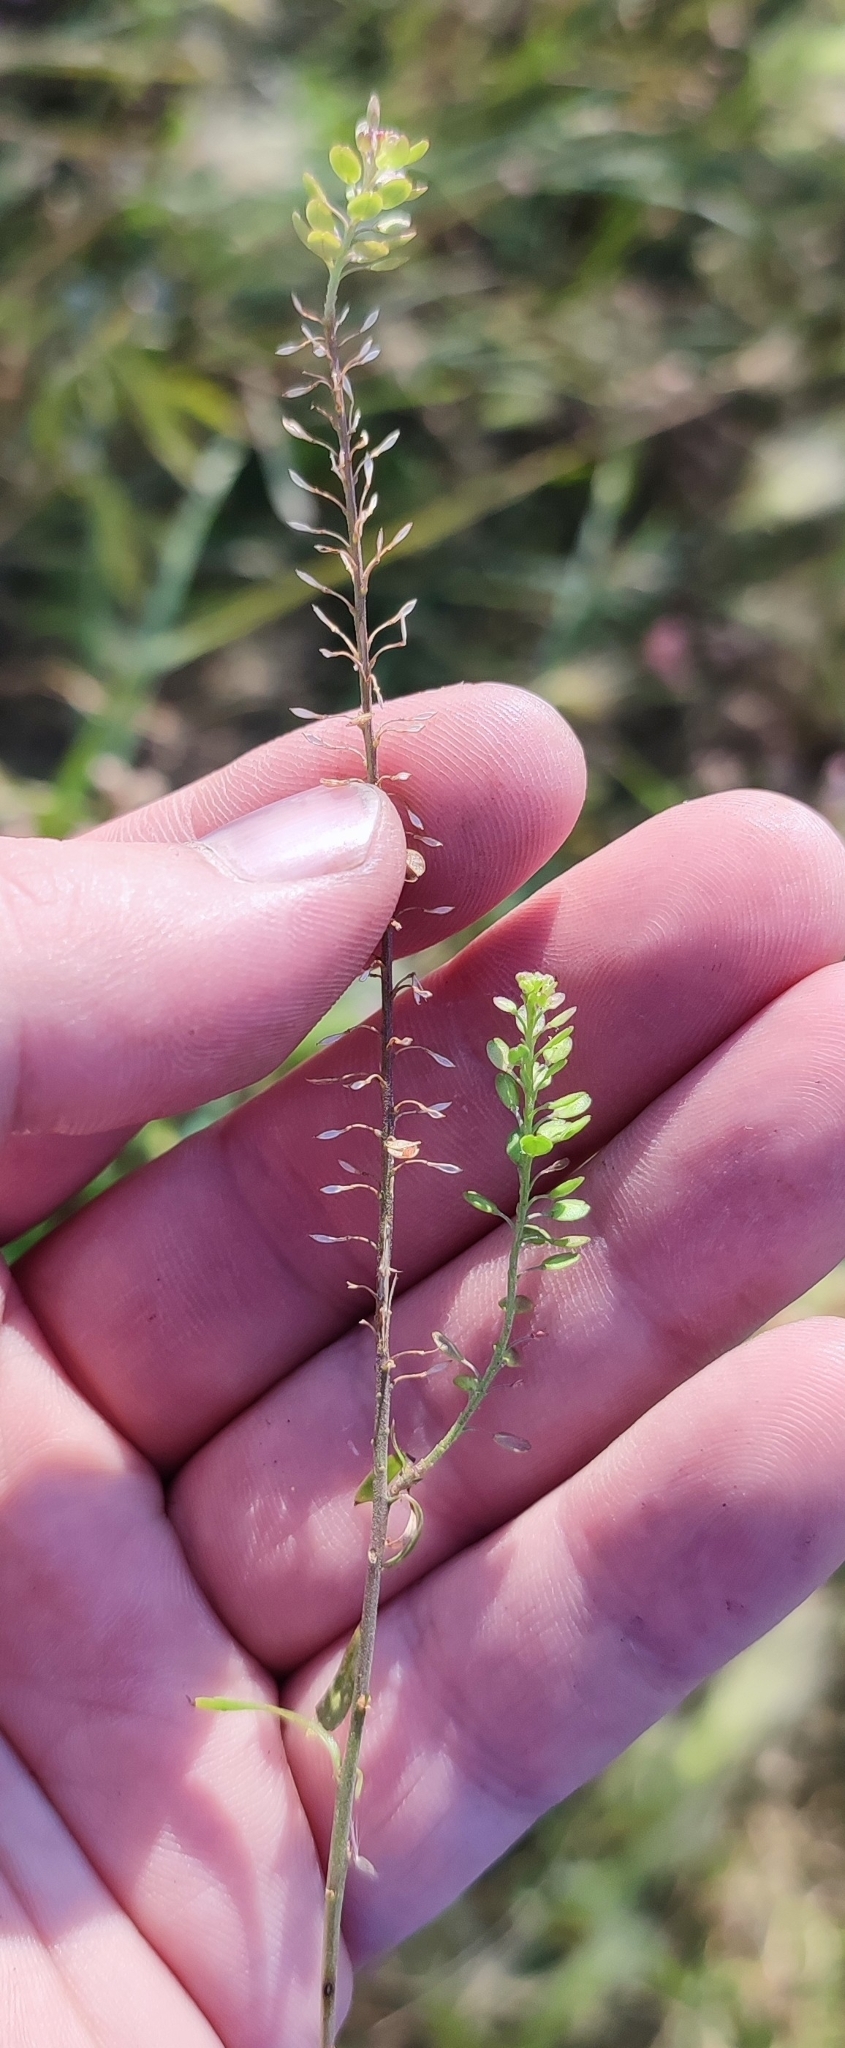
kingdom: Plantae
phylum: Tracheophyta
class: Magnoliopsida
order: Brassicales
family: Brassicaceae
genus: Lepidium
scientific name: Lepidium densiflorum
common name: Miner's pepperwort
